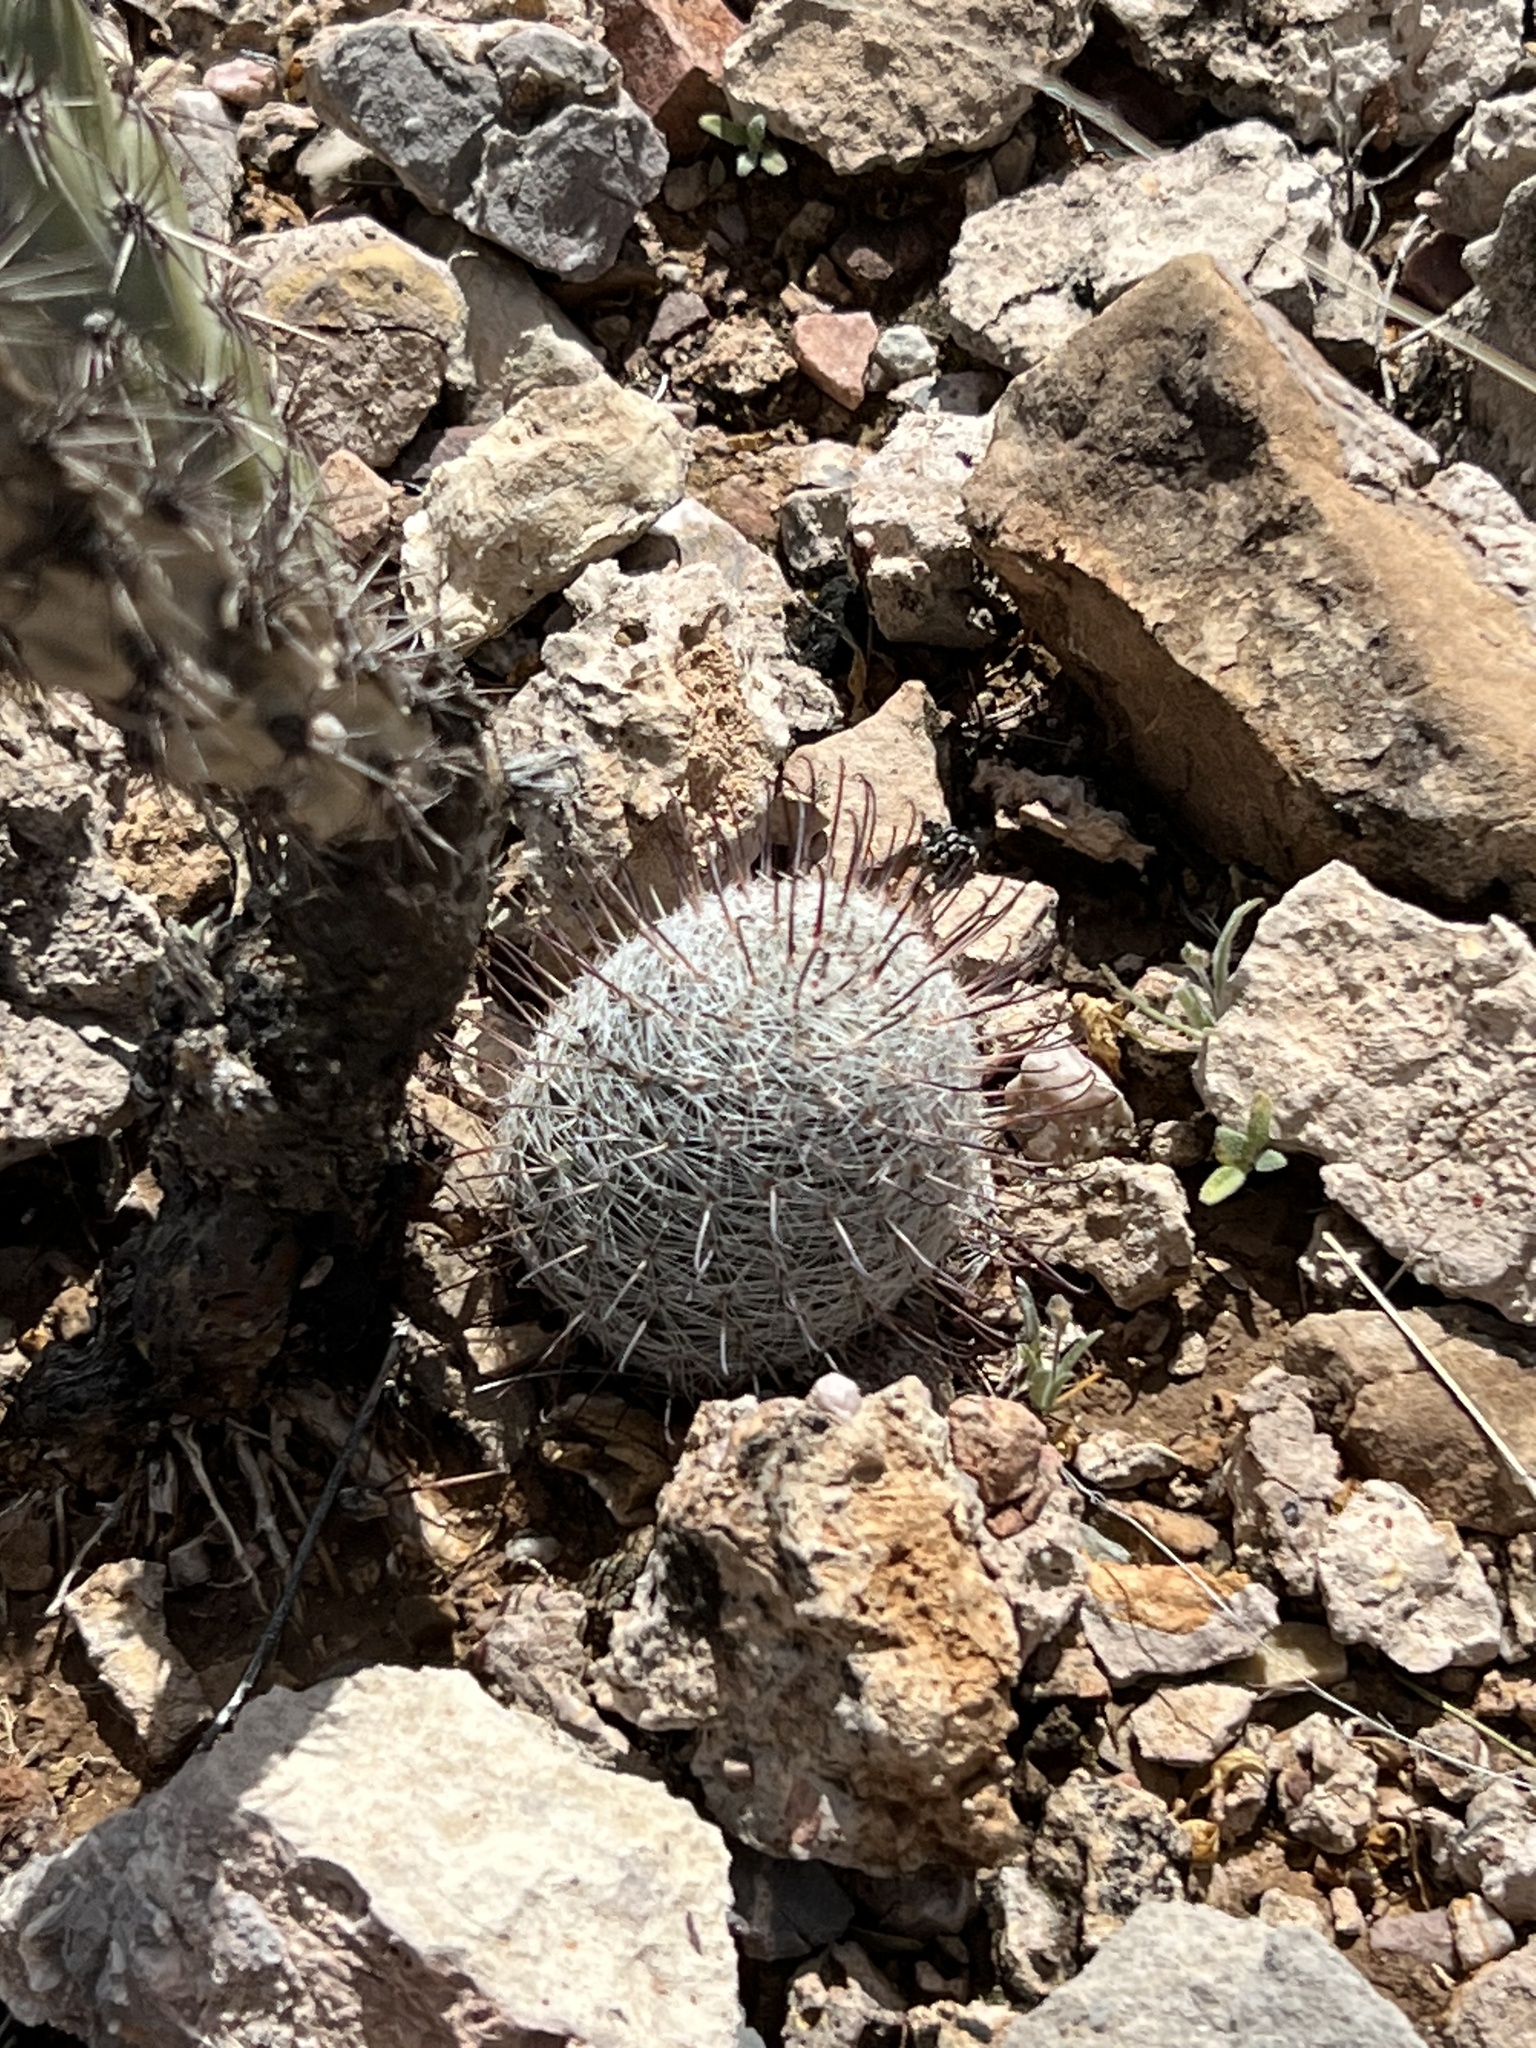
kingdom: Plantae
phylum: Tracheophyta
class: Magnoliopsida
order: Caryophyllales
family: Cactaceae
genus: Cochemiea
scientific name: Cochemiea grahamii
